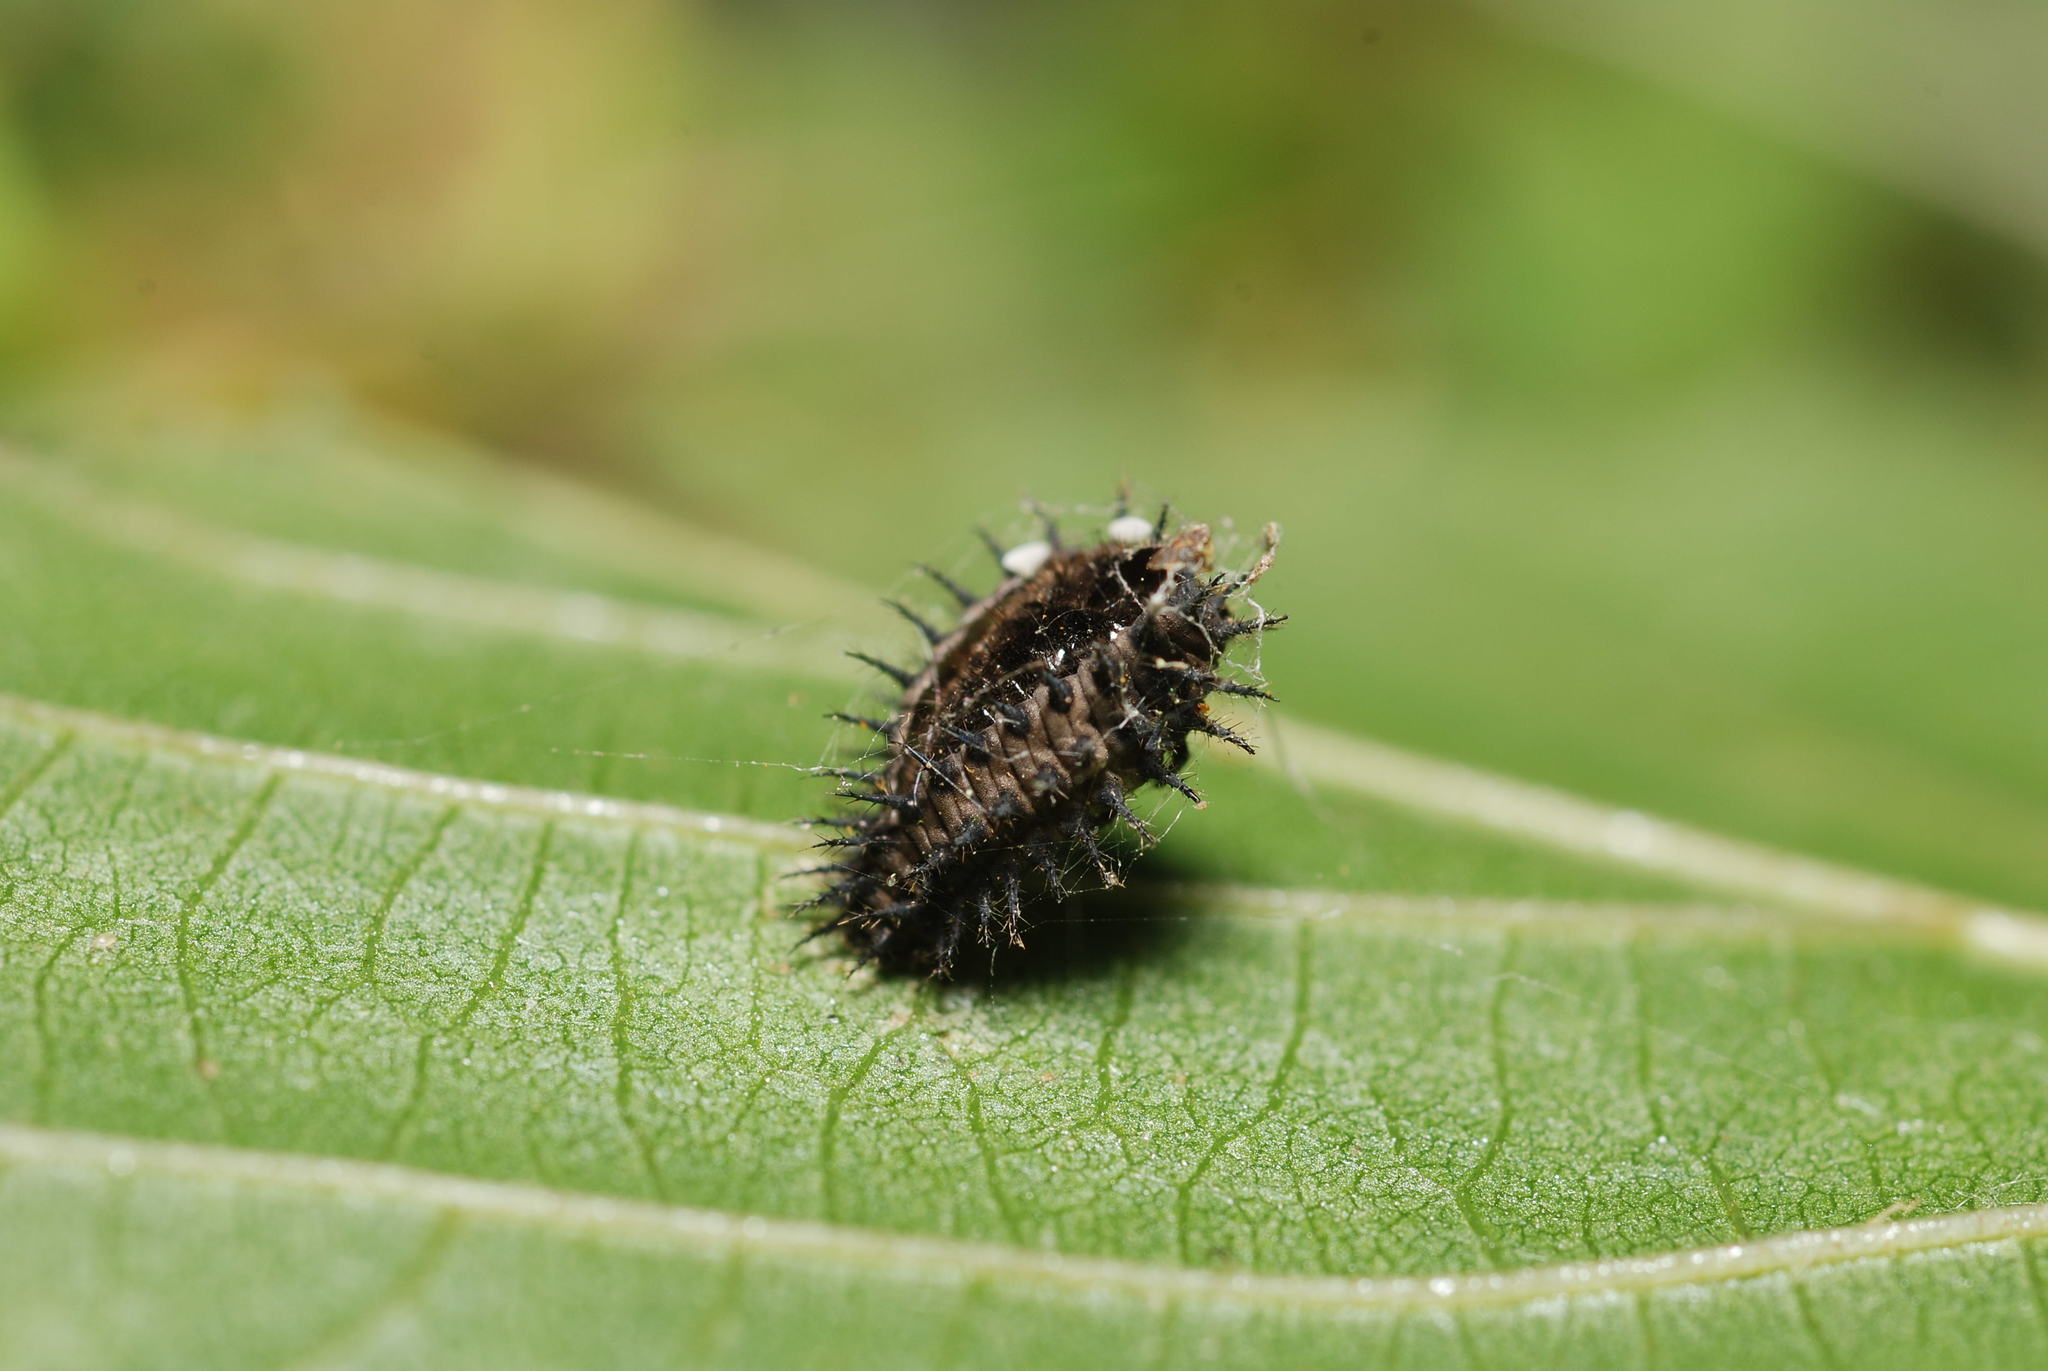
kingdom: Animalia
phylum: Arthropoda
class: Insecta
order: Coleoptera
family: Coccinellidae
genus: Chilocorus
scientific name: Chilocorus renipustulatus
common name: Kidney-spot ladybird
